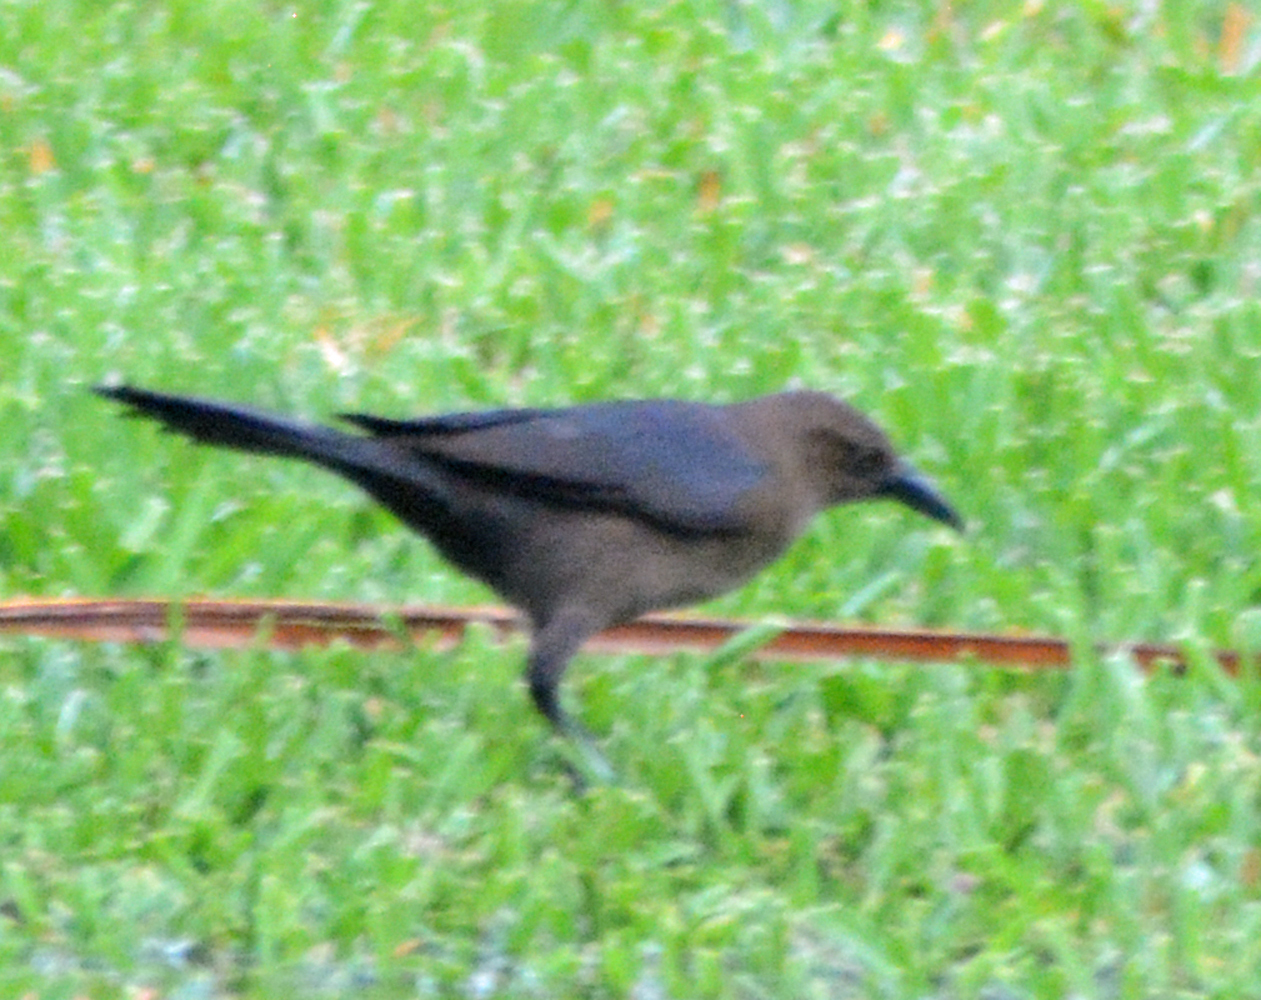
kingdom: Animalia
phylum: Chordata
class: Aves
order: Passeriformes
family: Icteridae
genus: Quiscalus
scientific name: Quiscalus mexicanus
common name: Great-tailed grackle
